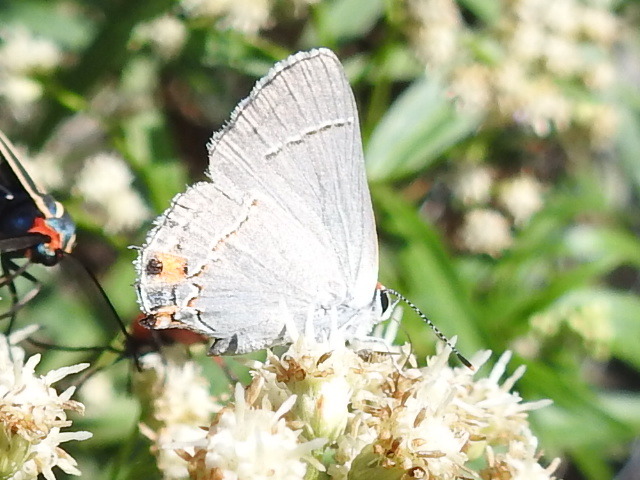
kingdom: Animalia
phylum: Arthropoda
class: Insecta
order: Lepidoptera
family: Lycaenidae
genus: Strymon
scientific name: Strymon melinus
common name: Gray hairstreak
